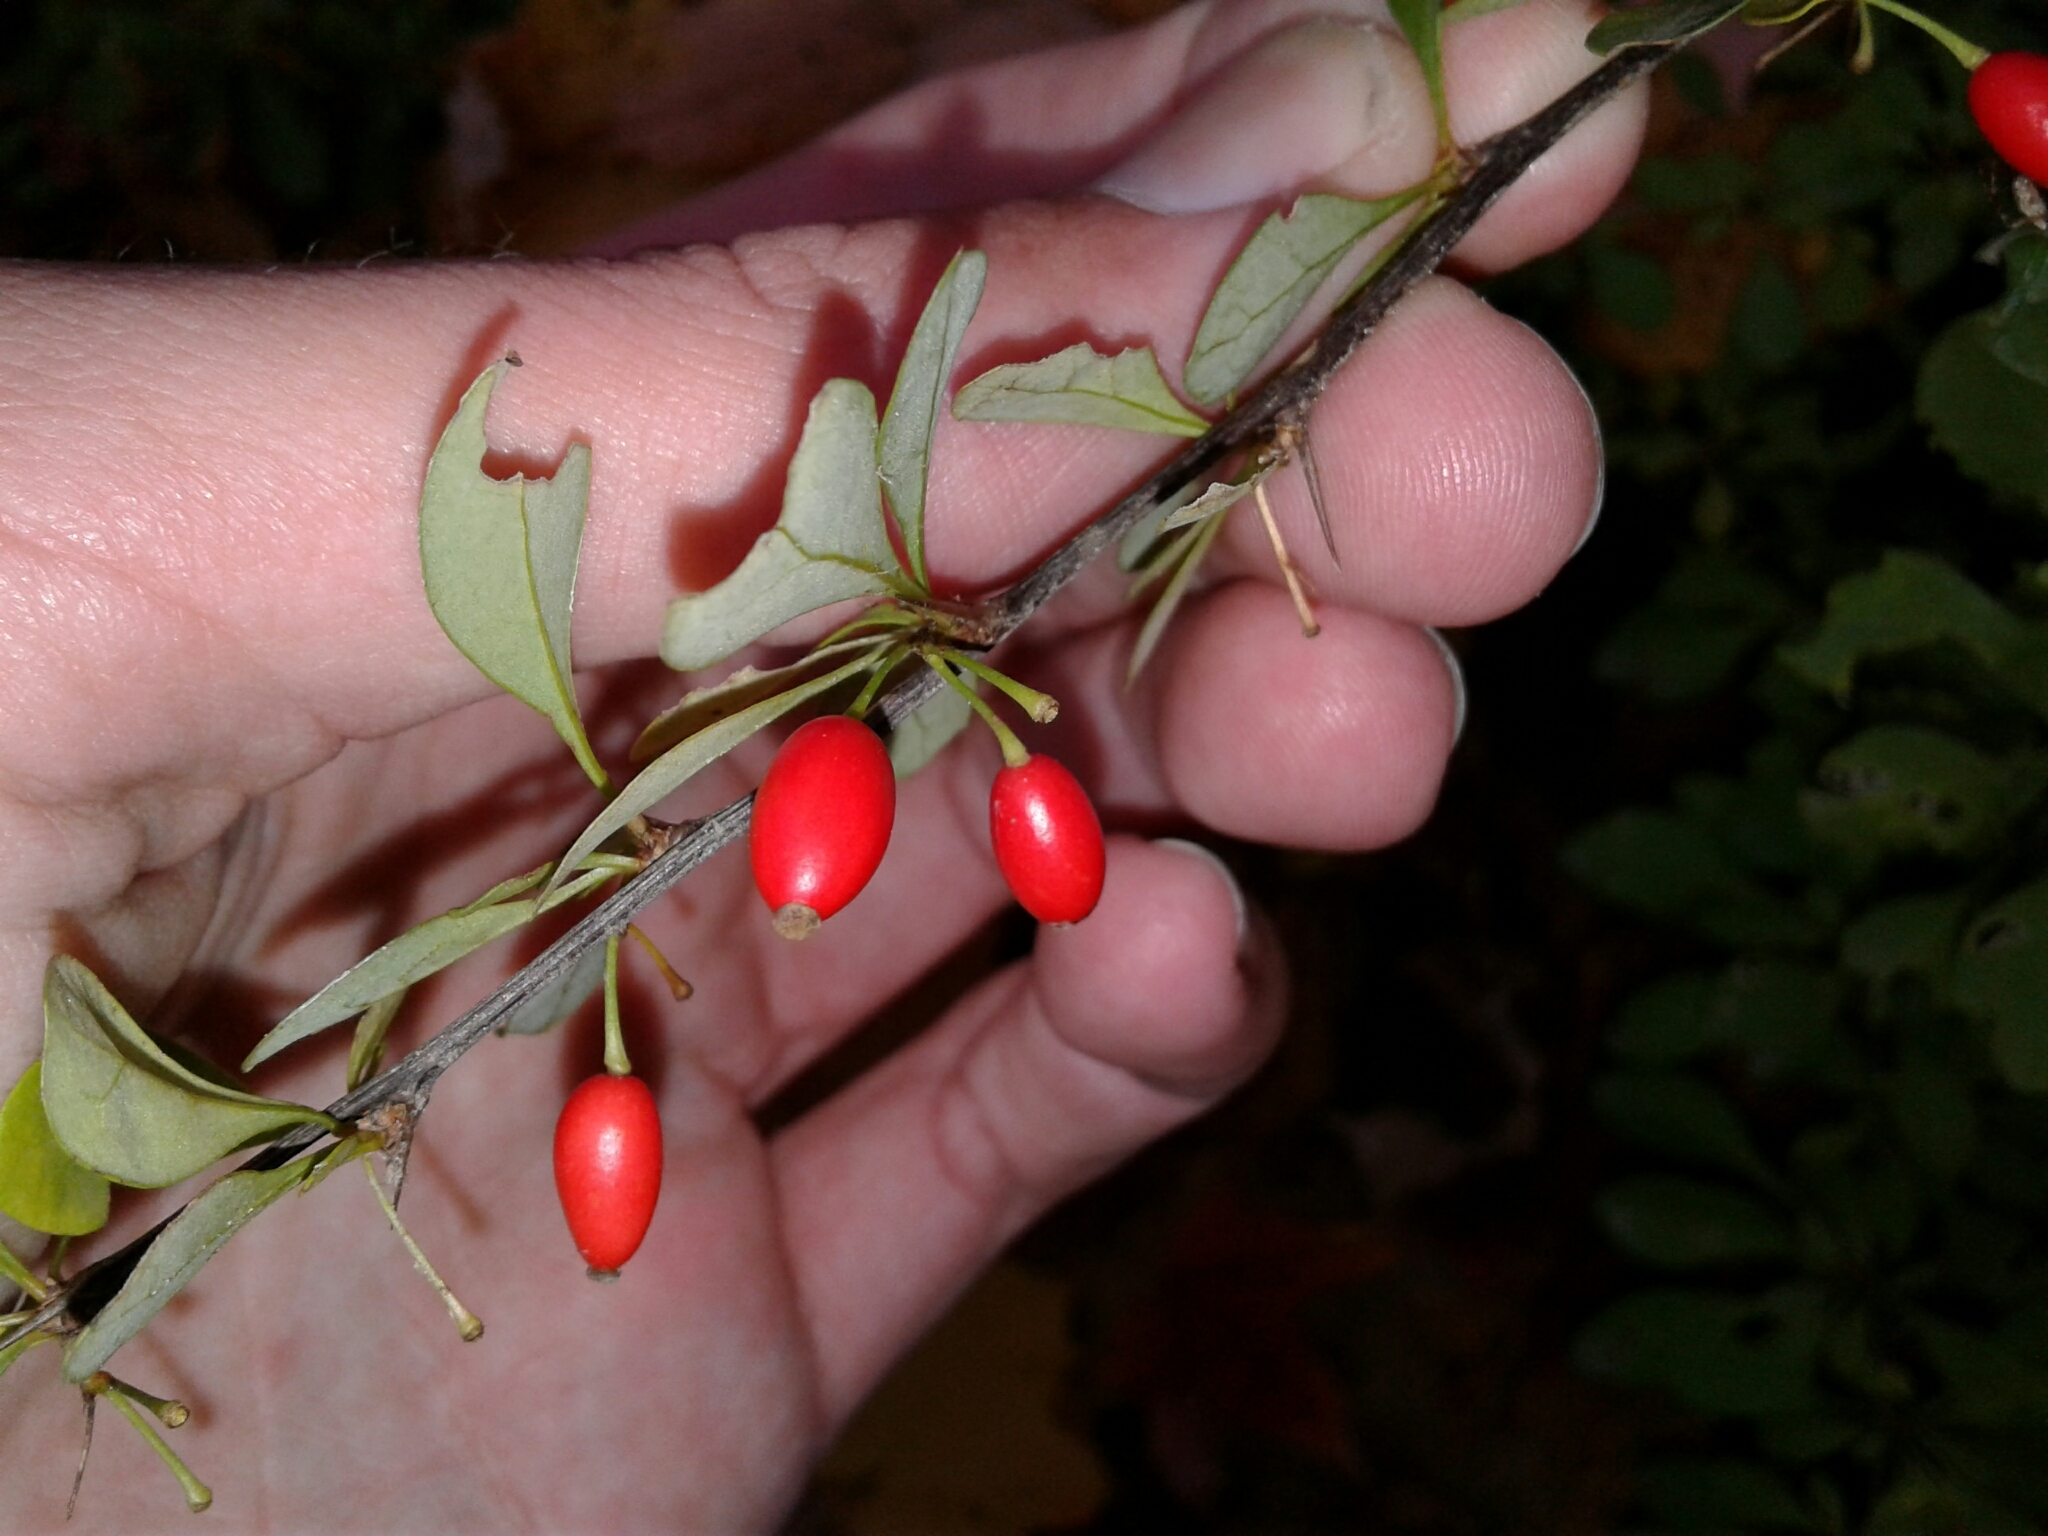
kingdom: Plantae
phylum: Tracheophyta
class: Magnoliopsida
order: Ranunculales
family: Berberidaceae
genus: Berberis
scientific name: Berberis thunbergii
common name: Japanese barberry
